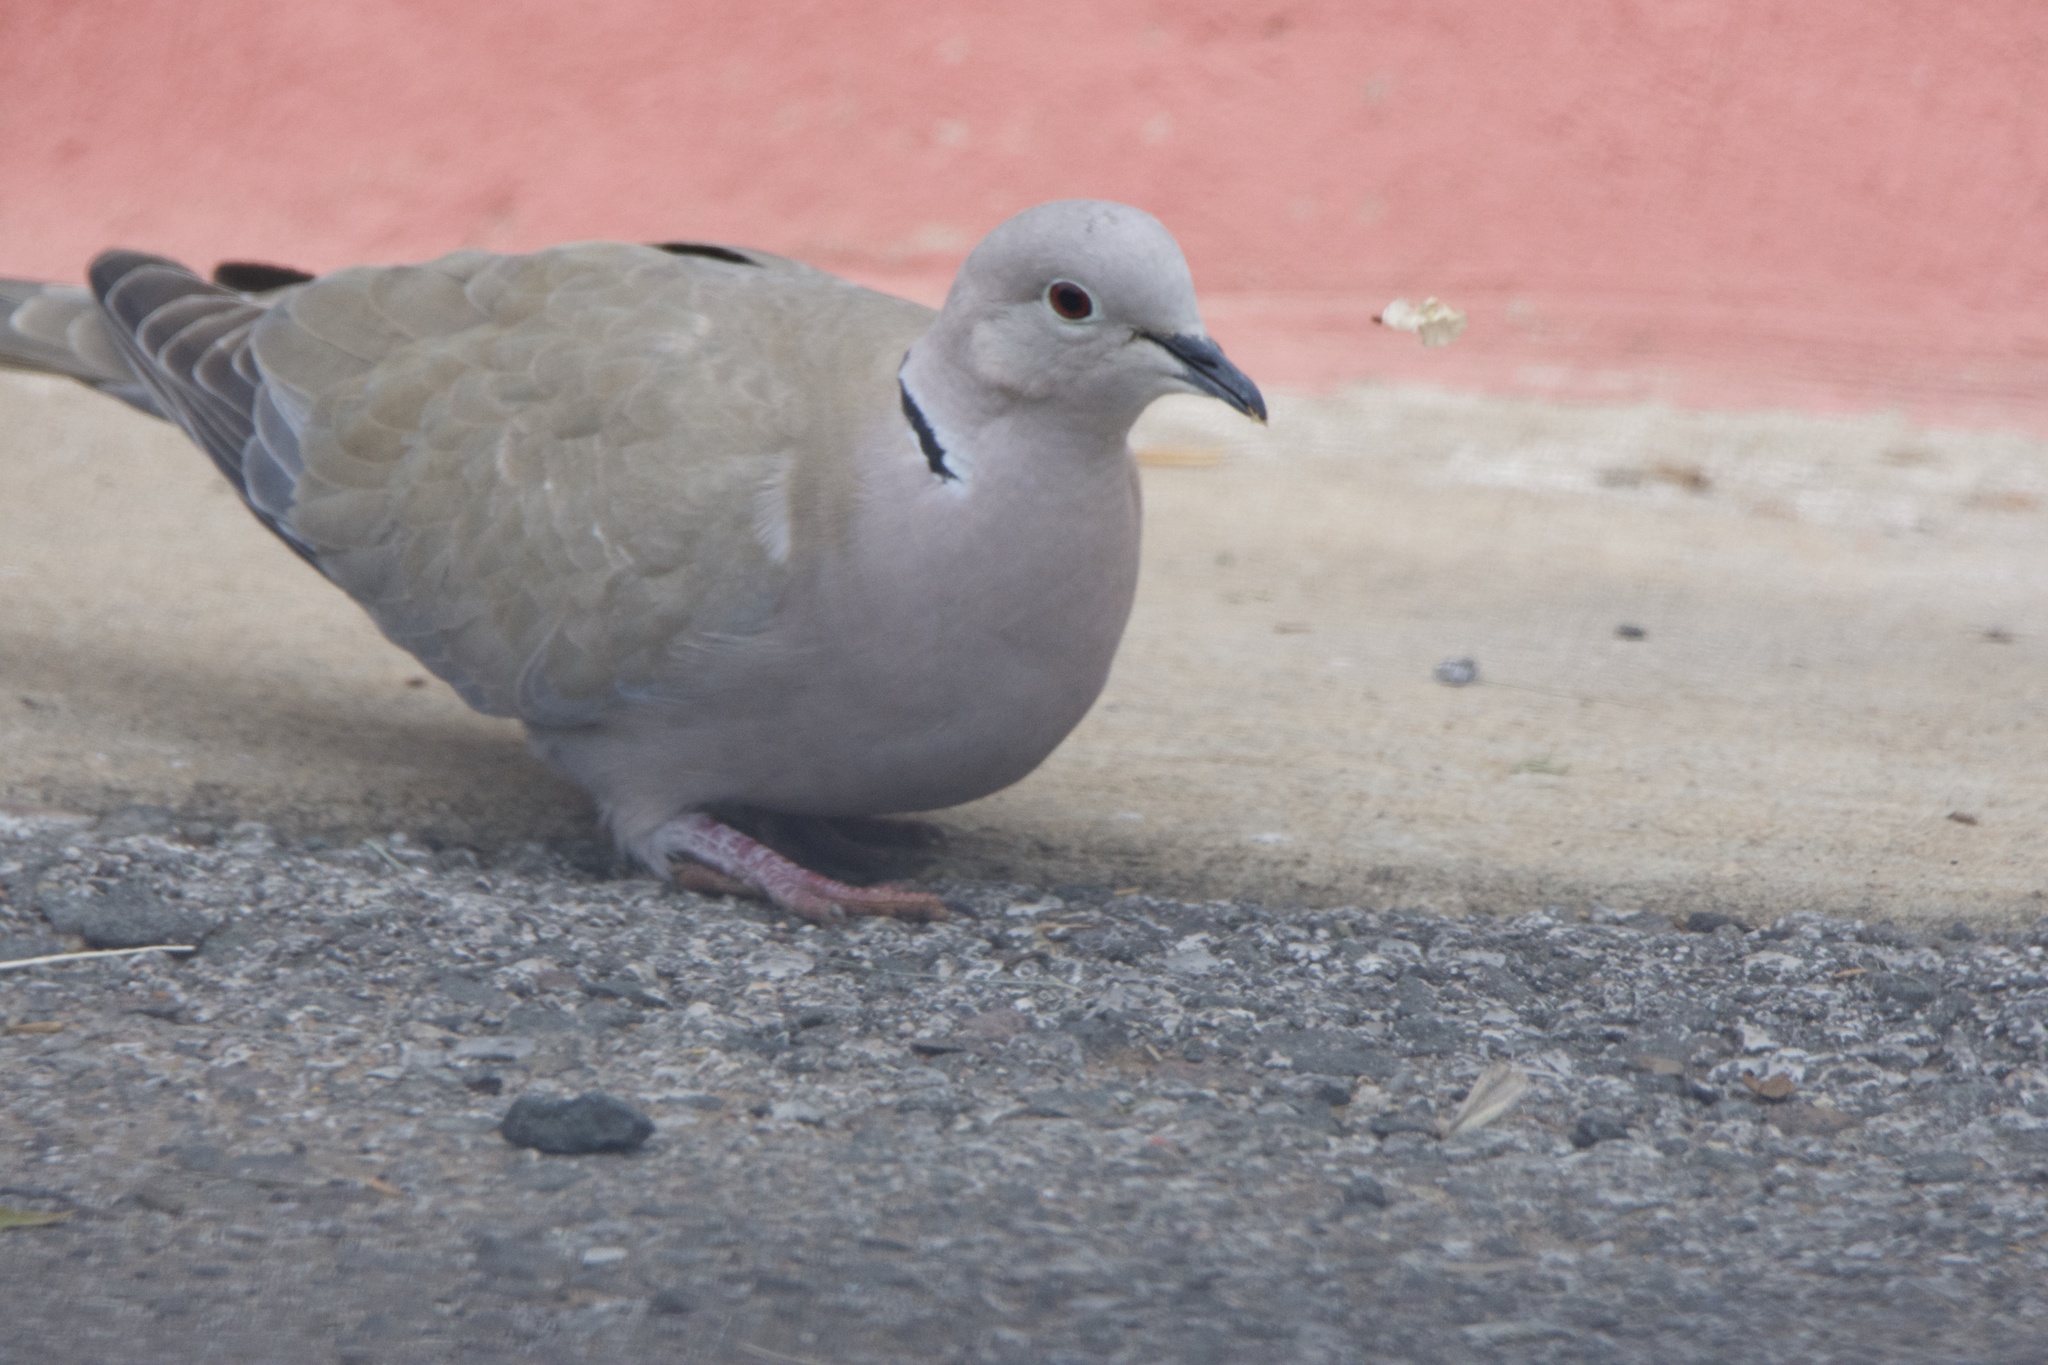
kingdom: Animalia
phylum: Chordata
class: Aves
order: Columbiformes
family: Columbidae
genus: Streptopelia
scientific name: Streptopelia decaocto
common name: Eurasian collared dove
